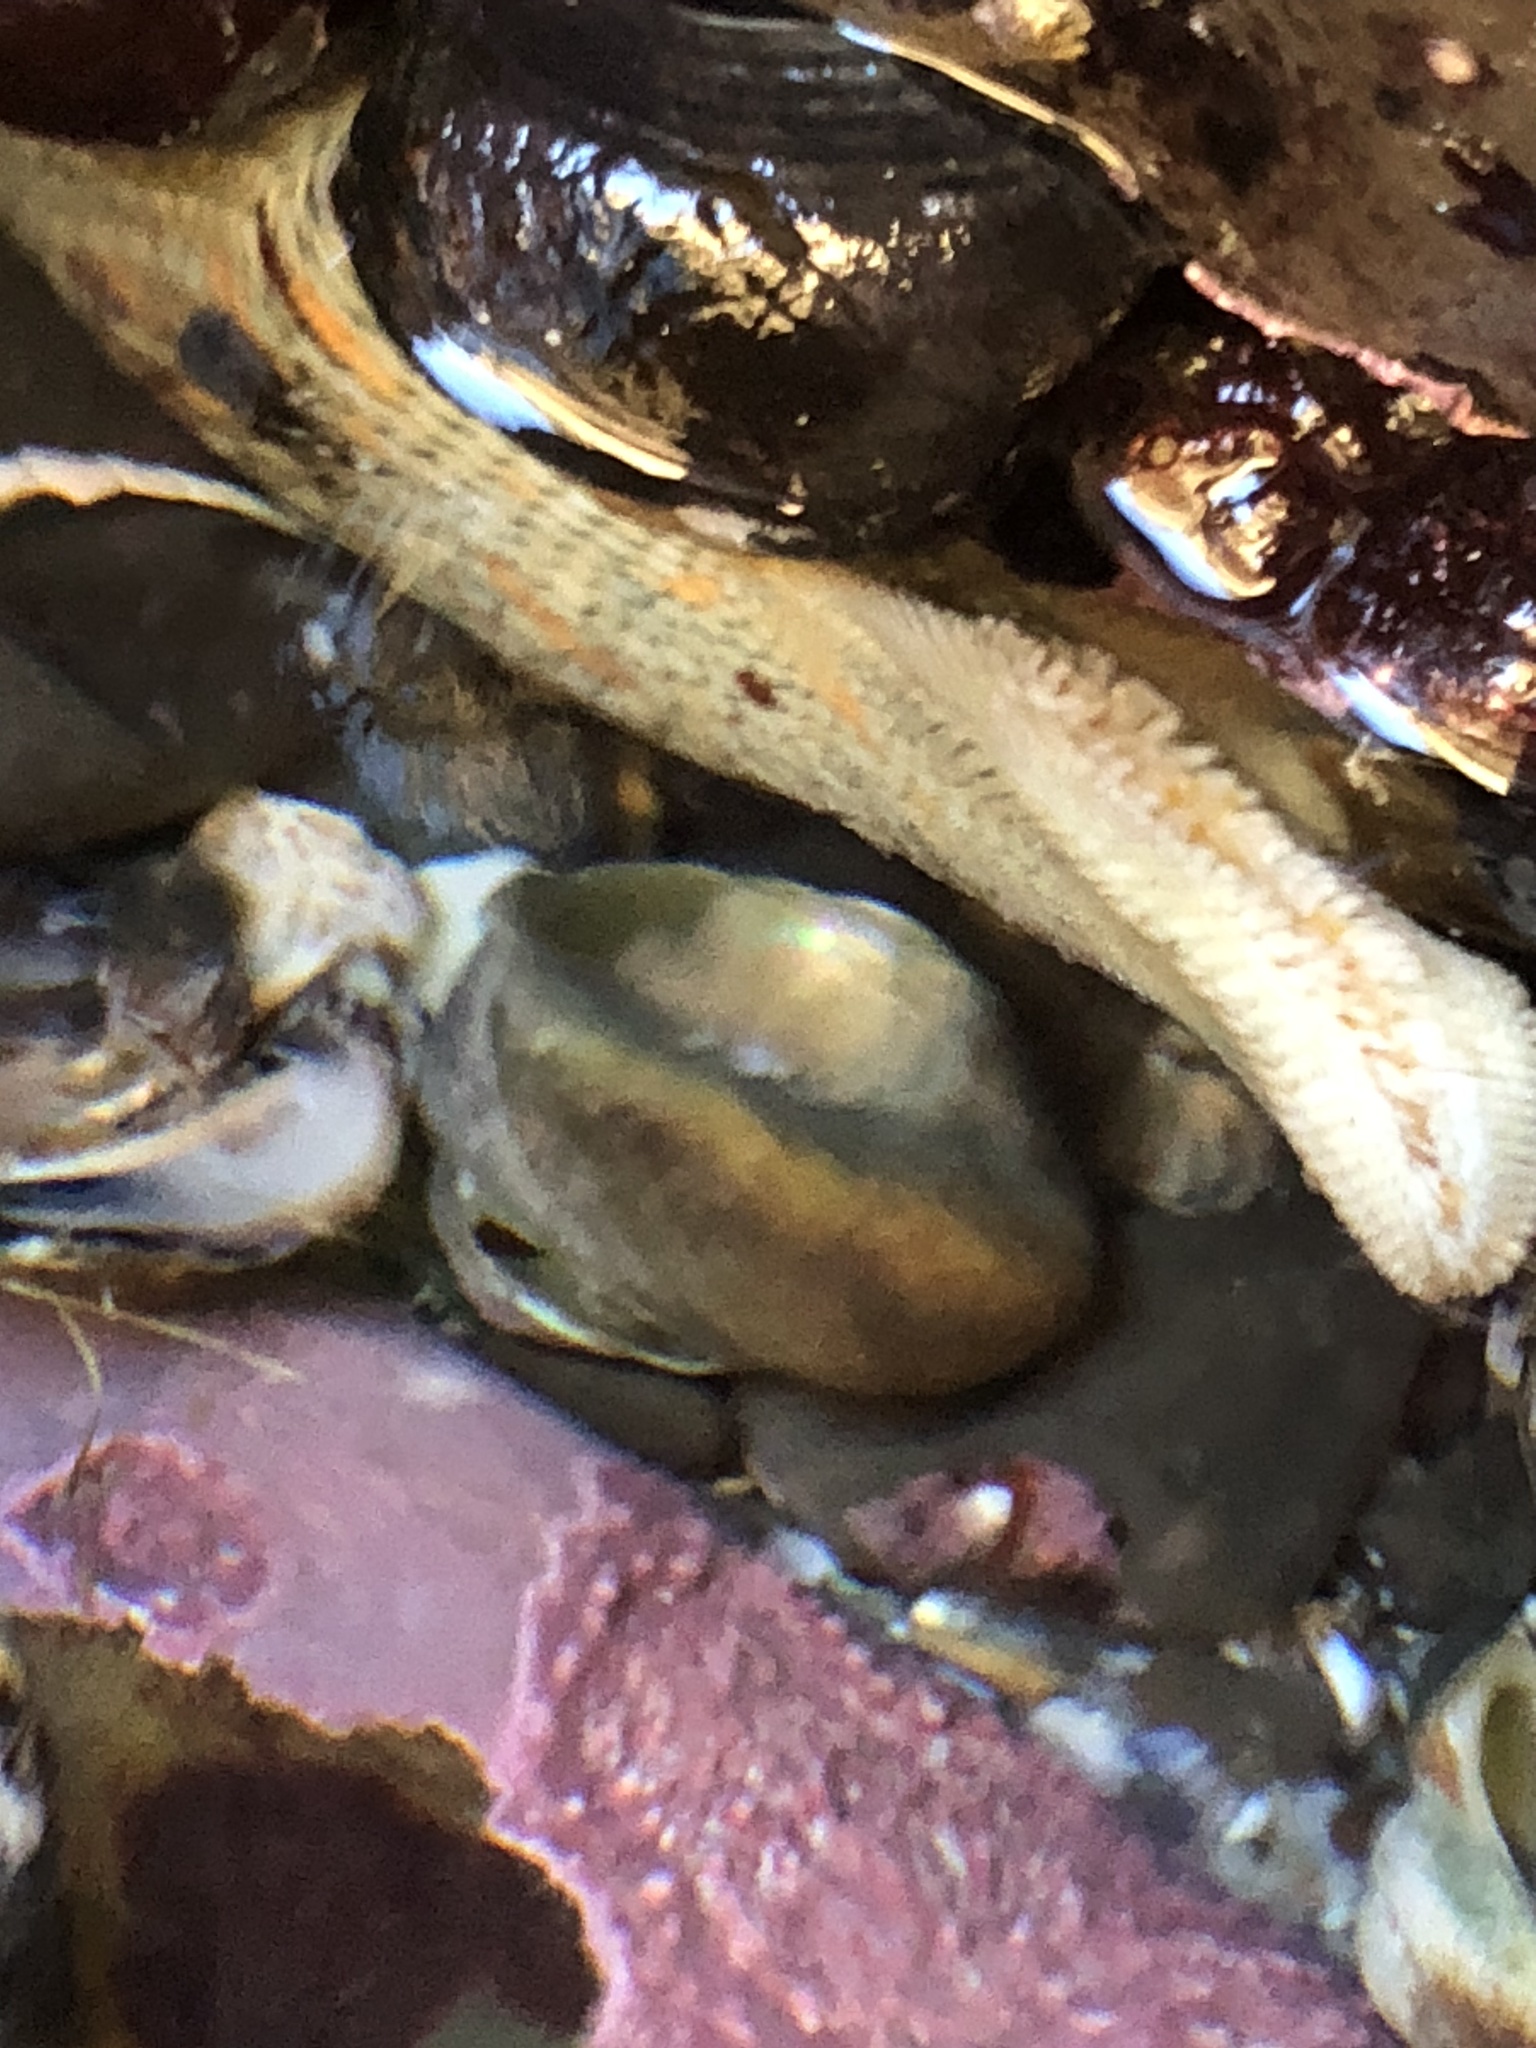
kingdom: Animalia
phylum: Echinodermata
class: Asteroidea
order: Valvatida
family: Asterinidae
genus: Patiria
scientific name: Patiria miniata
